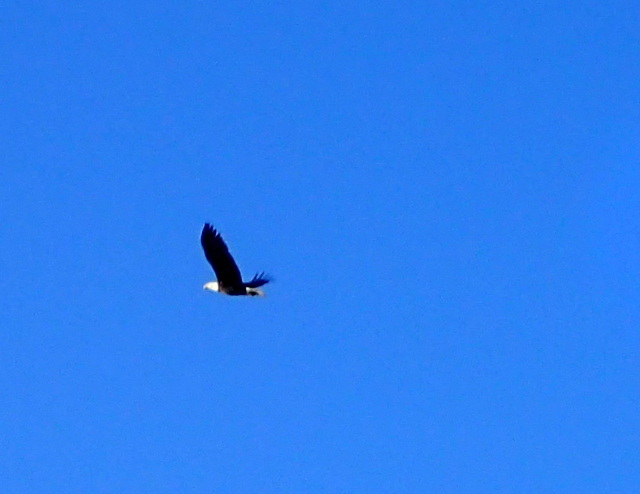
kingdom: Animalia
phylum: Chordata
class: Aves
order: Accipitriformes
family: Accipitridae
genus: Haliaeetus
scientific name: Haliaeetus leucocephalus
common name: Bald eagle
